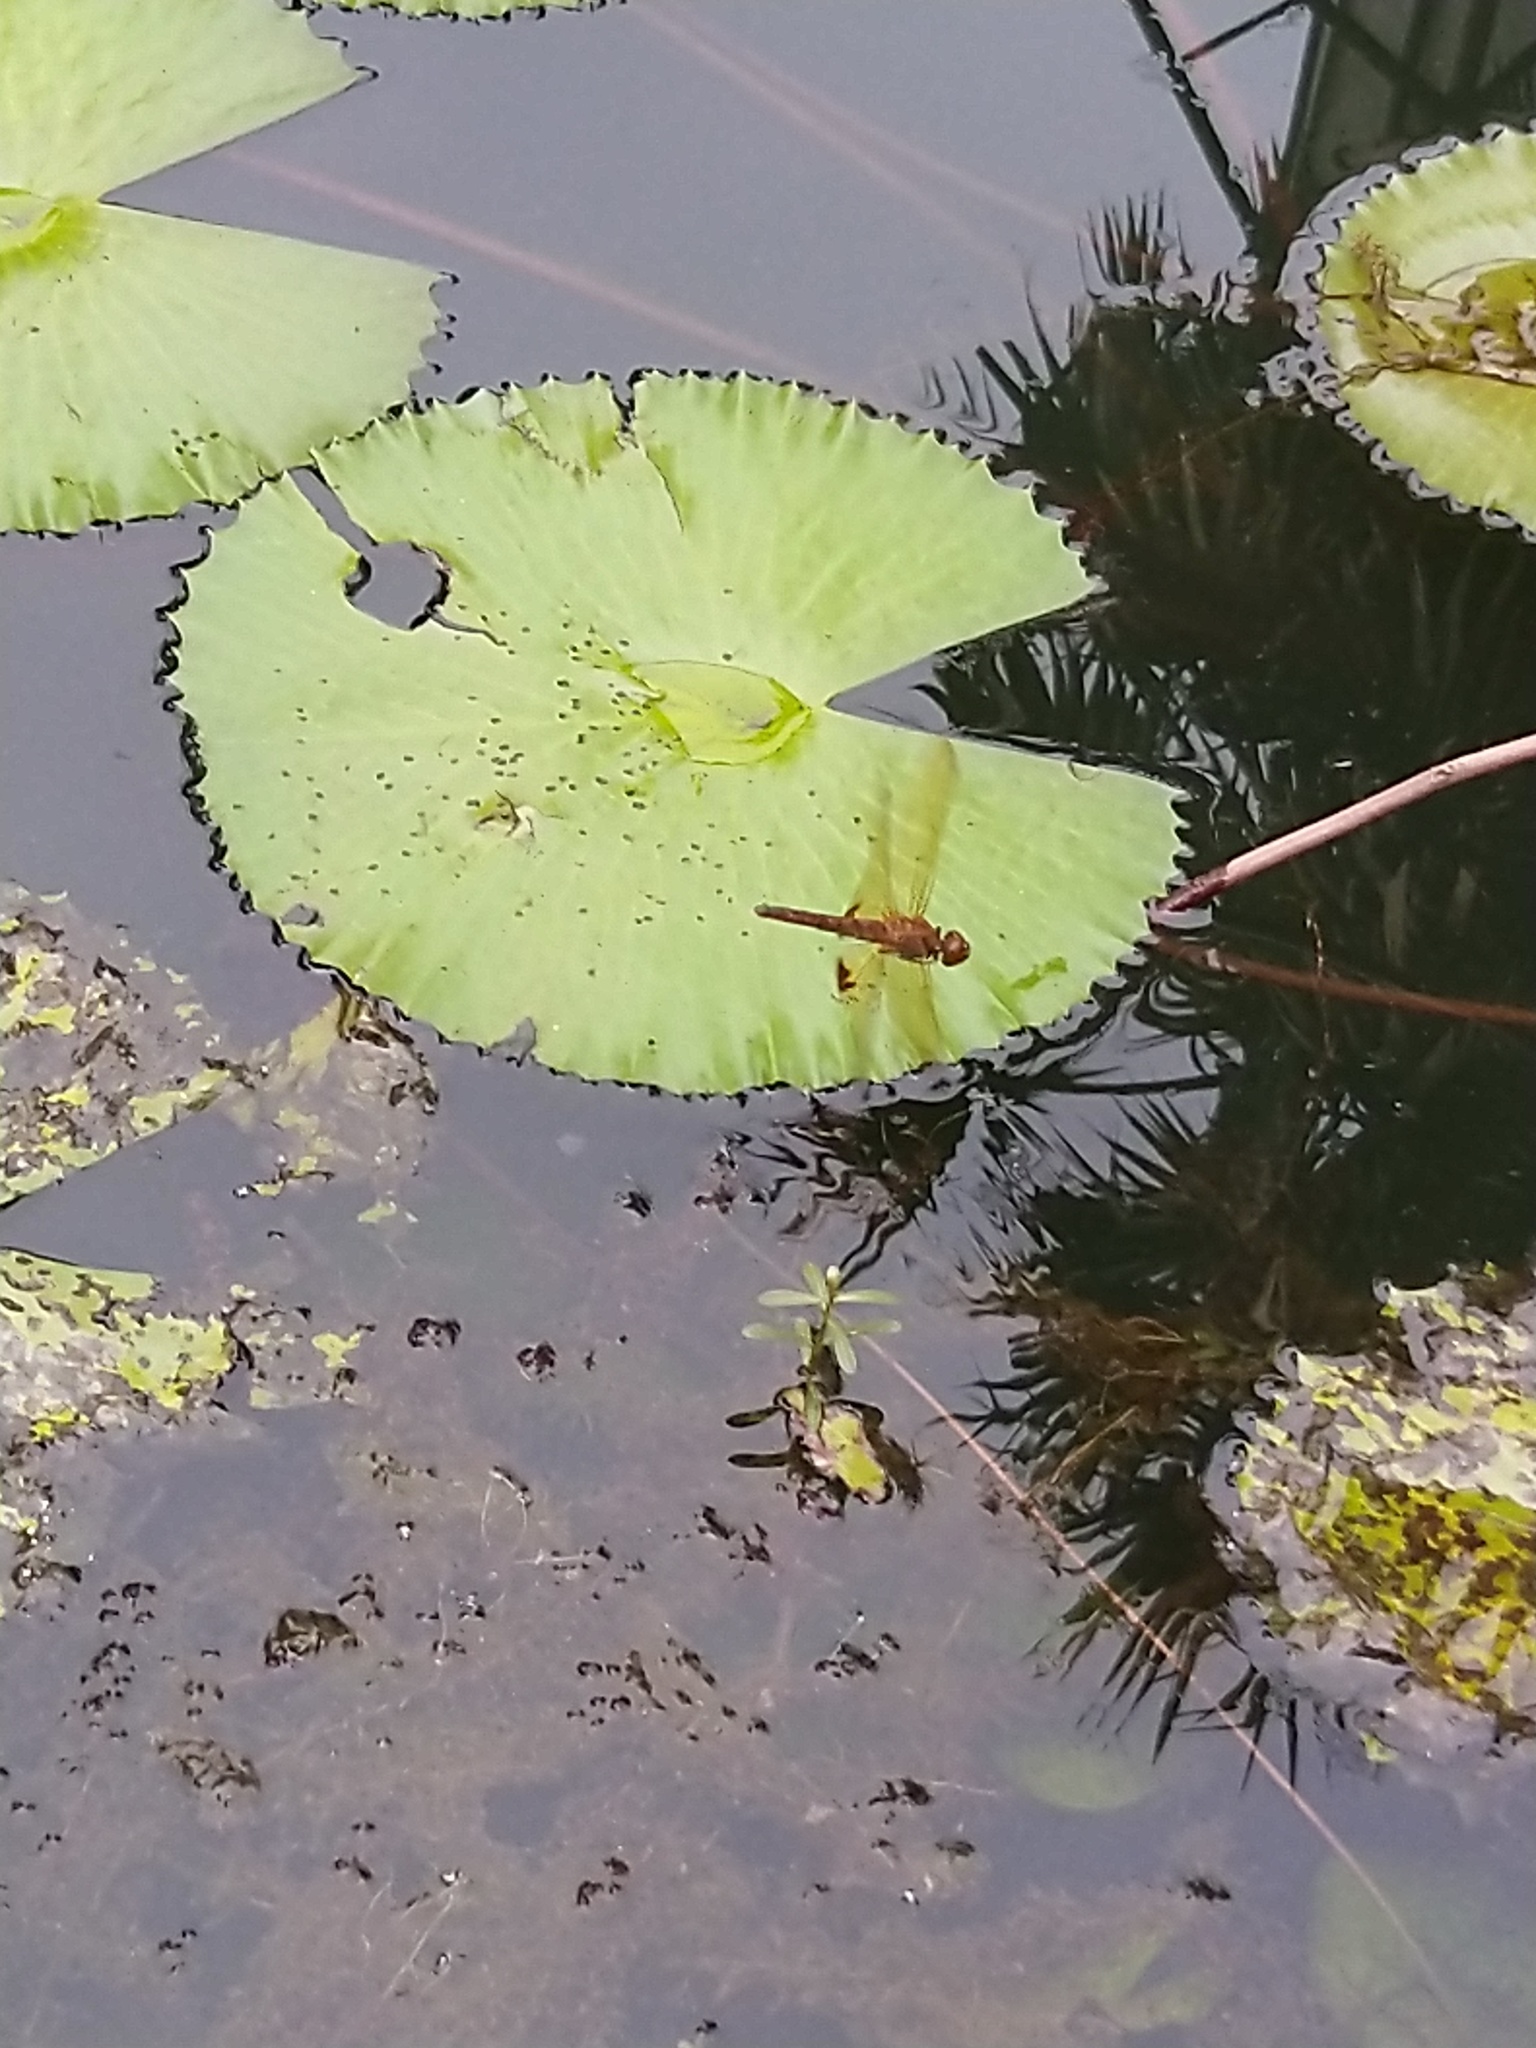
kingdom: Animalia
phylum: Arthropoda
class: Insecta
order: Odonata
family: Libellulidae
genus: Hydrobasileus
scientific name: Hydrobasileus croceus
